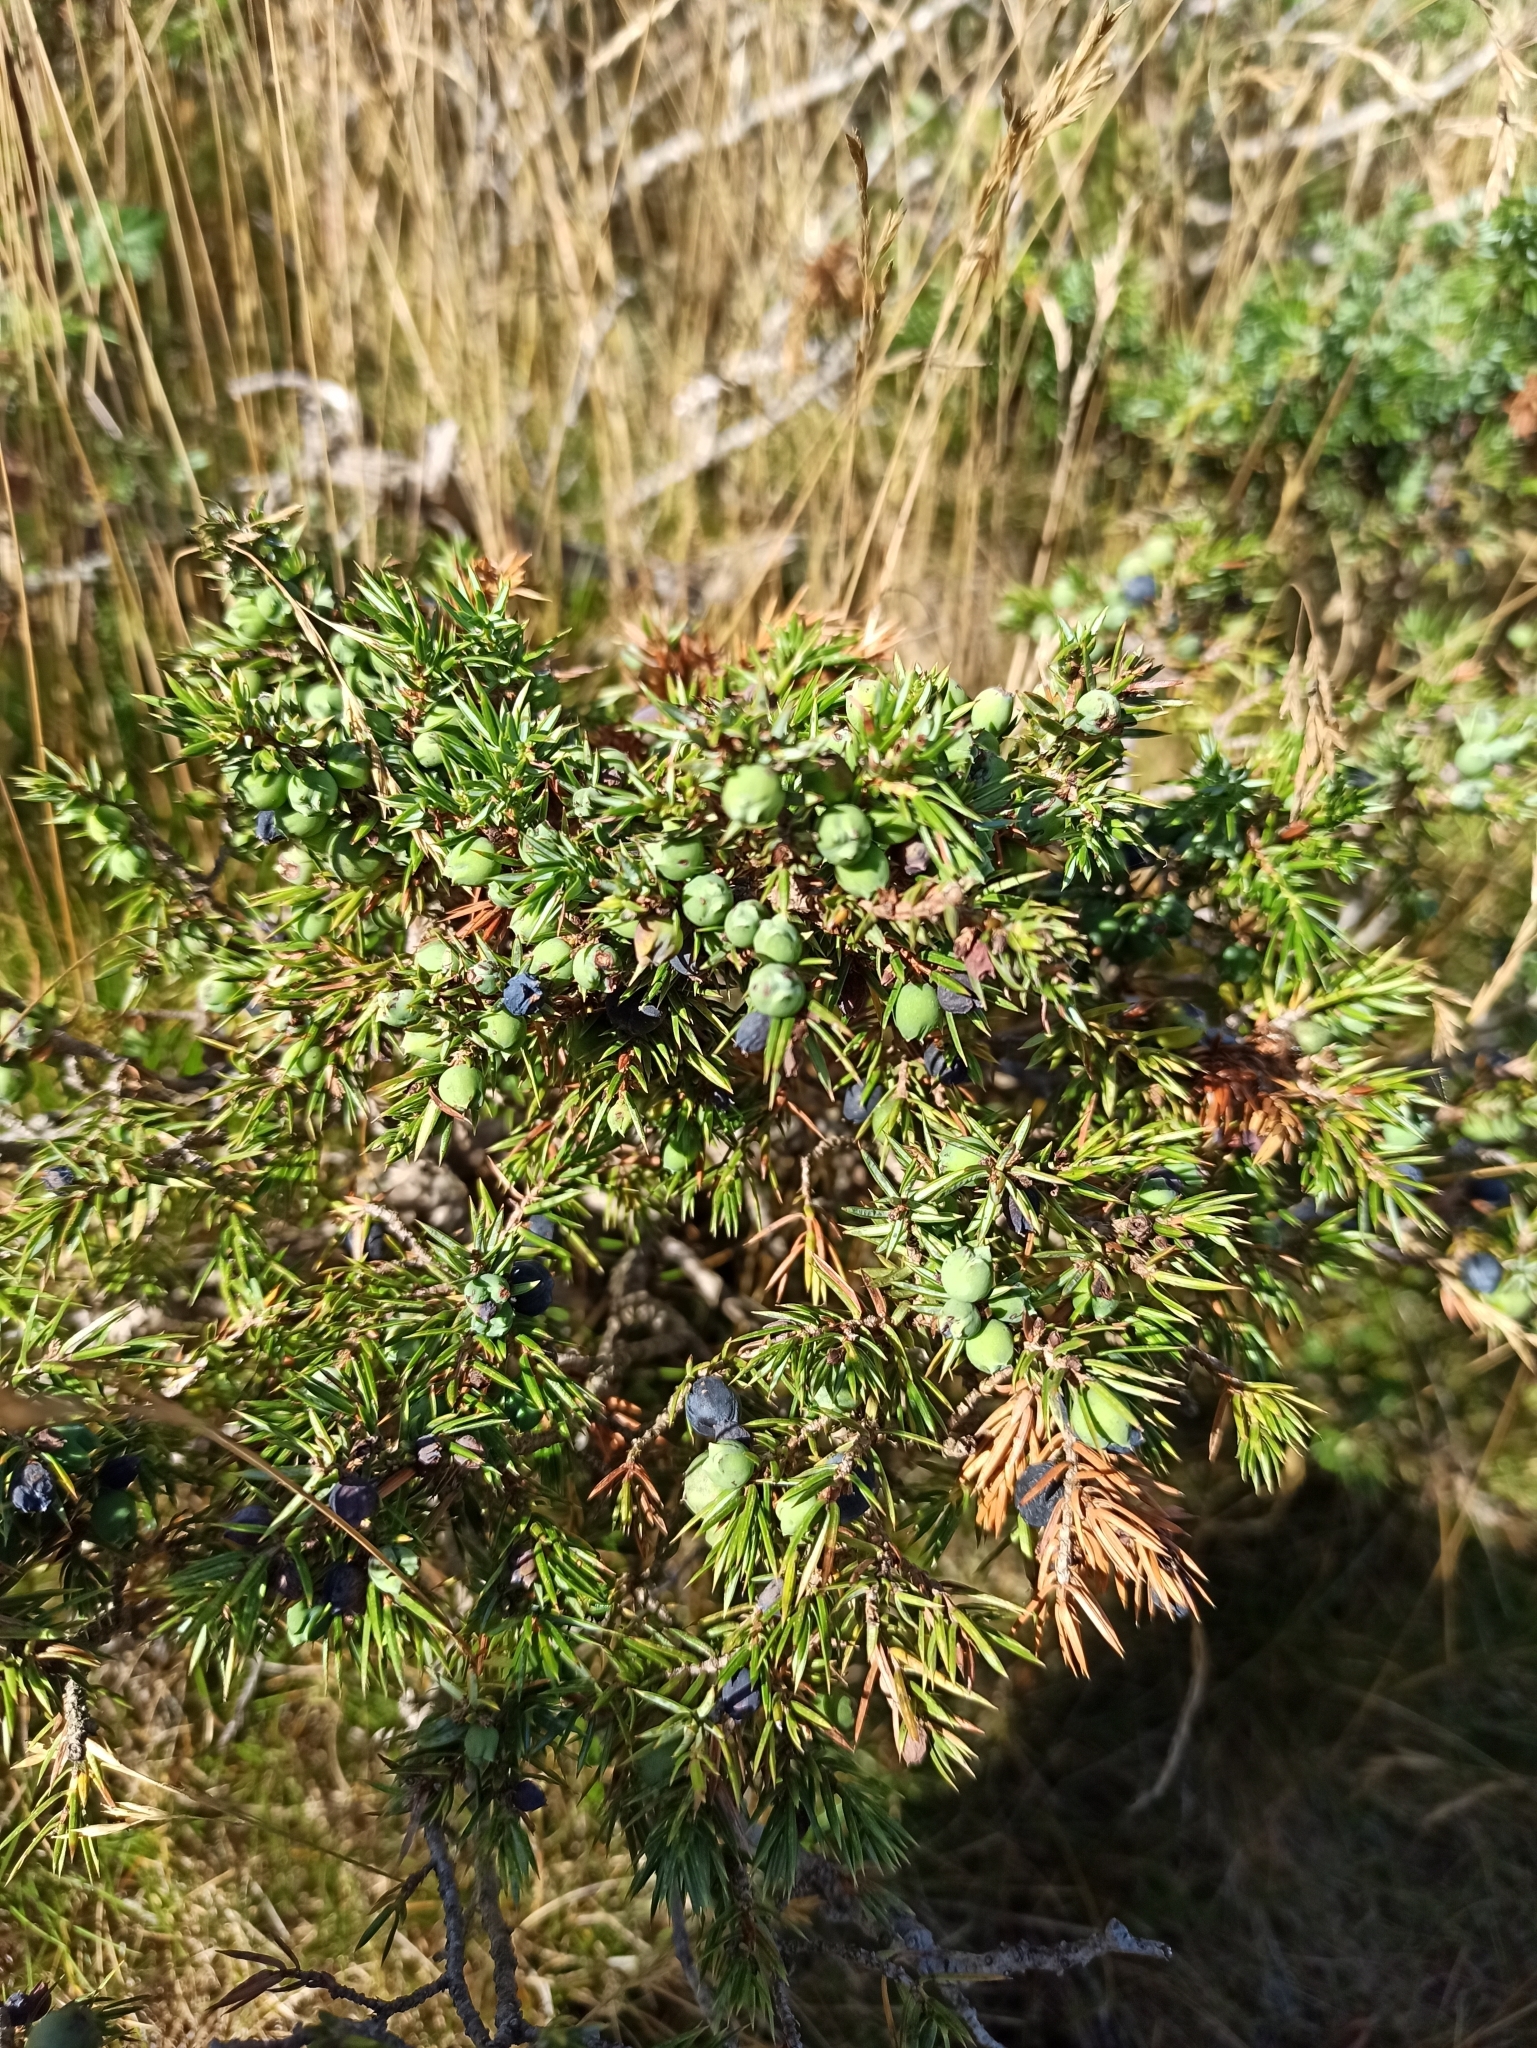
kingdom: Plantae
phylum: Tracheophyta
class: Pinopsida
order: Pinales
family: Cupressaceae
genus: Juniperus
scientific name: Juniperus communis
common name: Common juniper
